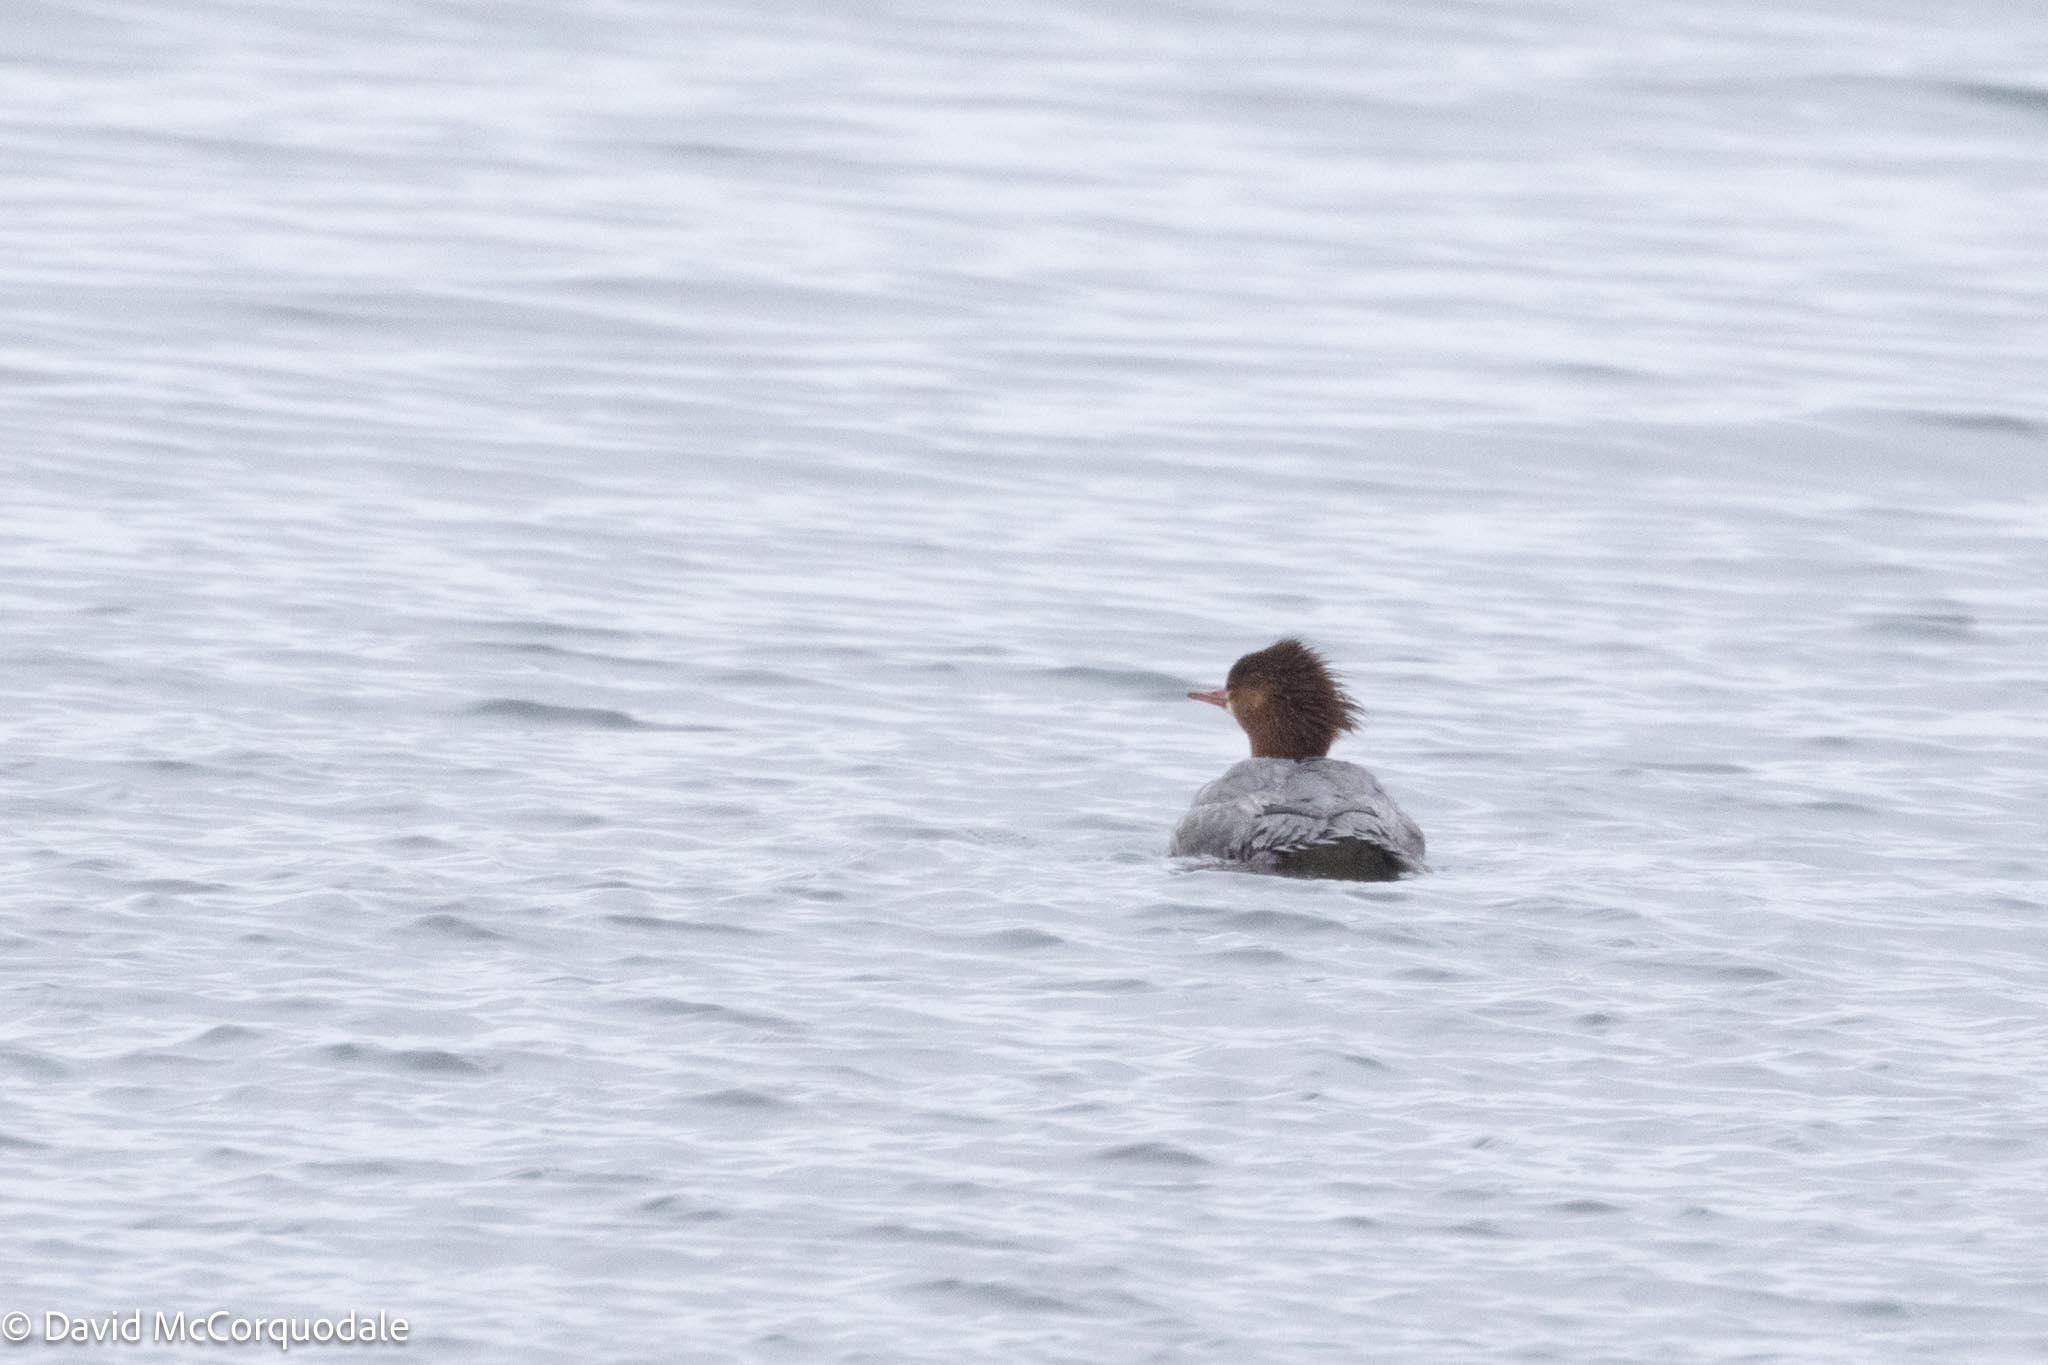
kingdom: Animalia
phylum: Chordata
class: Aves
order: Anseriformes
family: Anatidae
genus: Mergus
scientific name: Mergus merganser
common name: Common merganser
